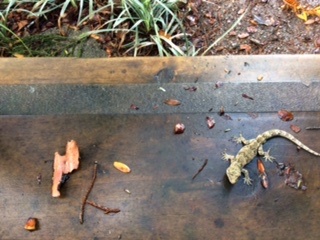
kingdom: Animalia
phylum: Chordata
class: Squamata
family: Diplodactylidae
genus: Mokopirirakau
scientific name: Mokopirirakau granulatus
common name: Forest gecko
